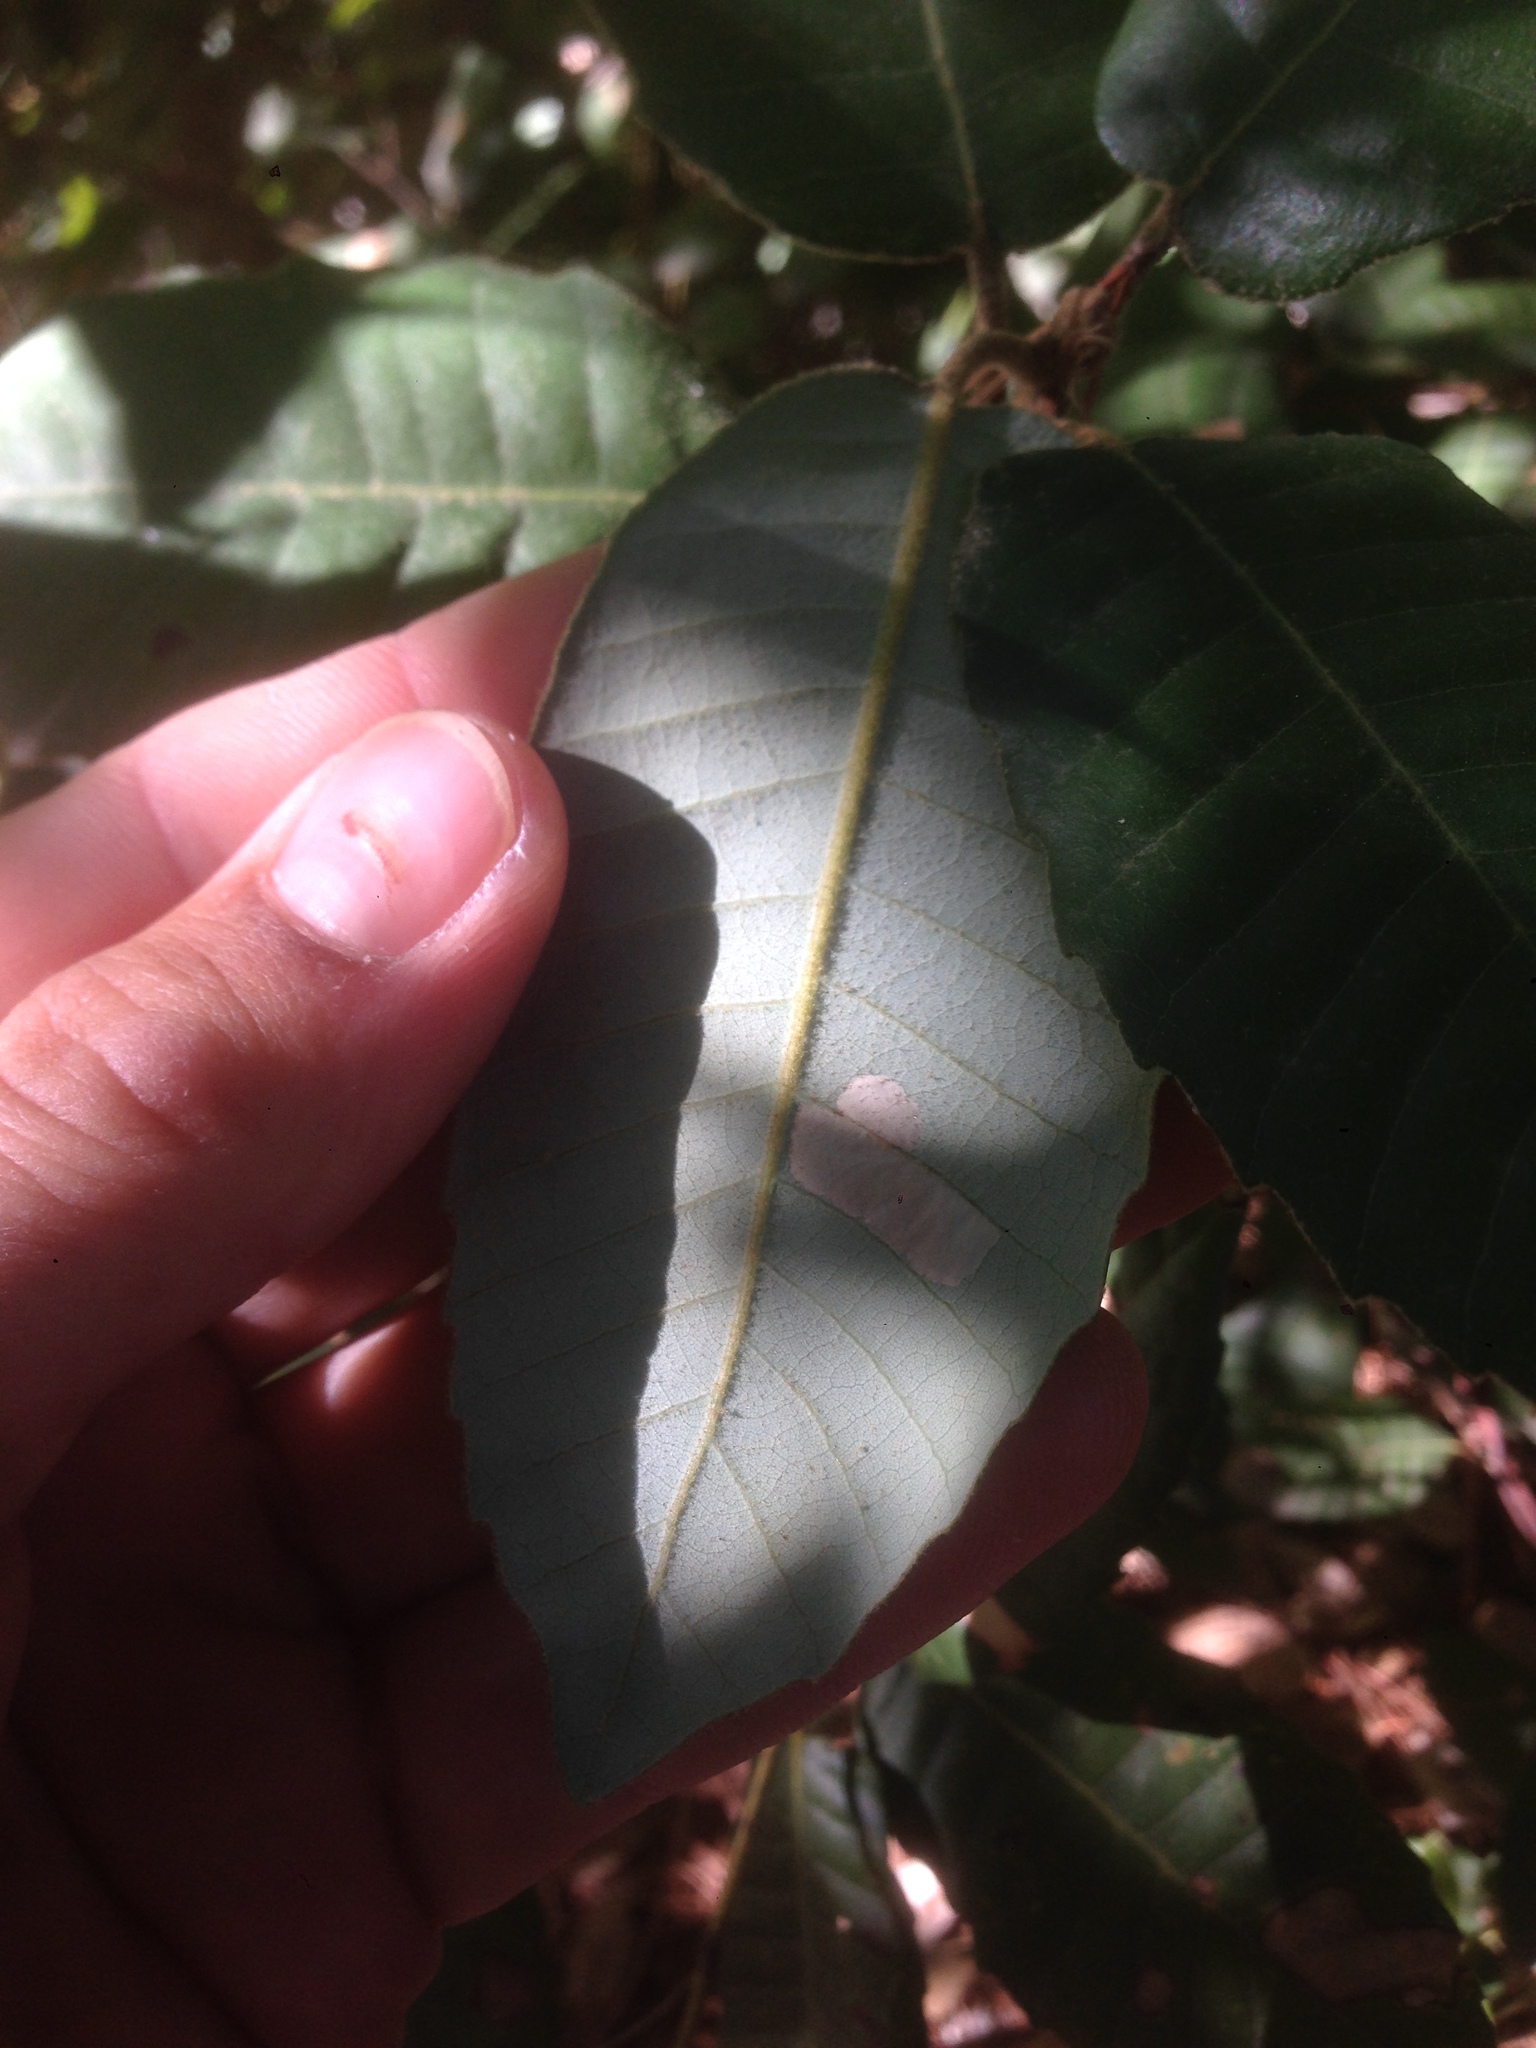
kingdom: Plantae
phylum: Tracheophyta
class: Magnoliopsida
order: Fagales
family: Fagaceae
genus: Notholithocarpus
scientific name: Notholithocarpus densiflorus
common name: Tan bark oak
